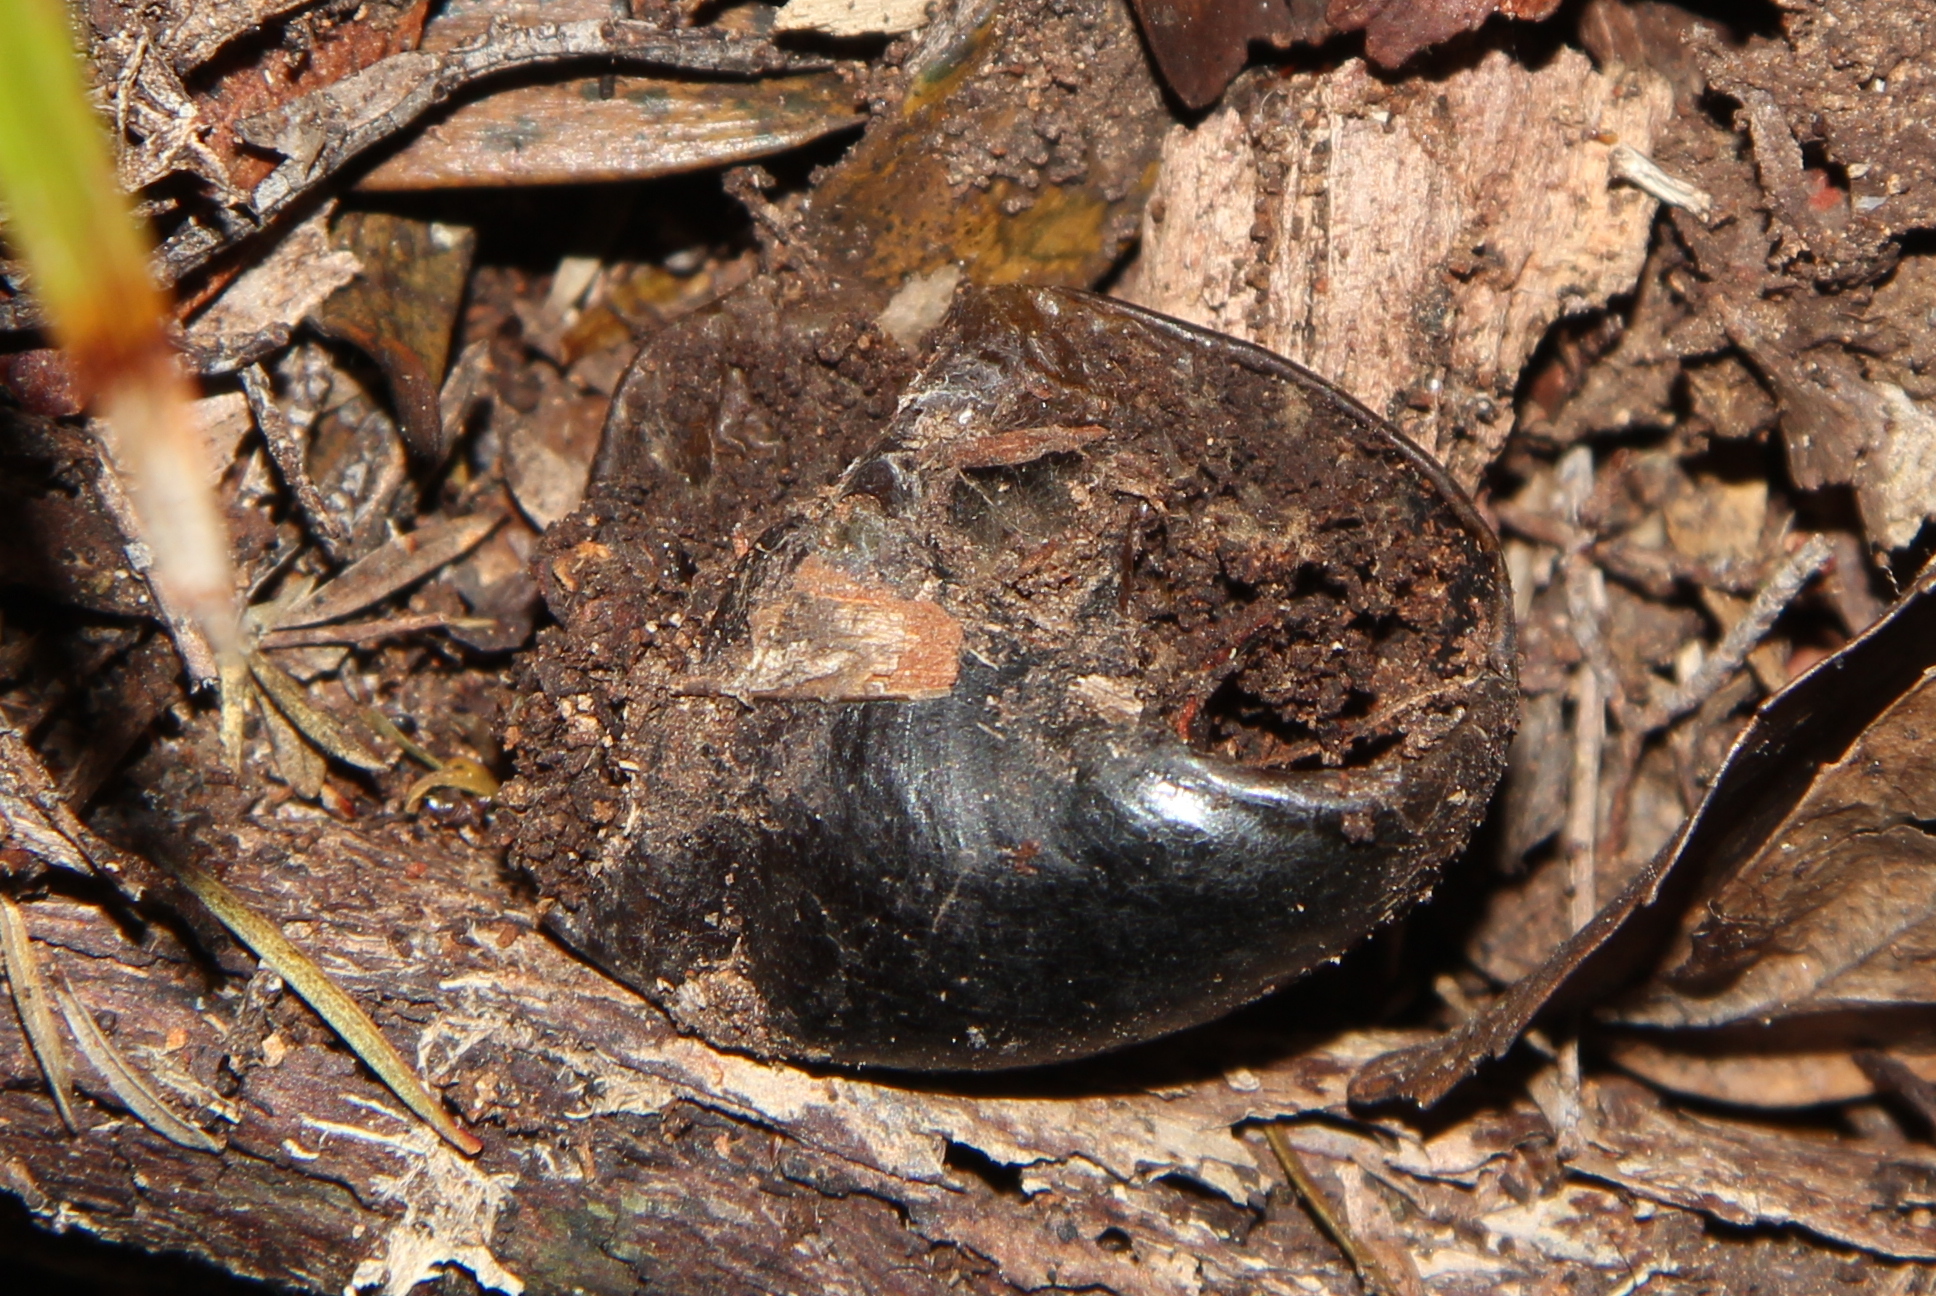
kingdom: Animalia
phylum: Mollusca
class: Gastropoda
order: Stylommatophora
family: Rhytididae
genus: Paryphanta
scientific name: Paryphanta busbyi
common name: Kauri snail
